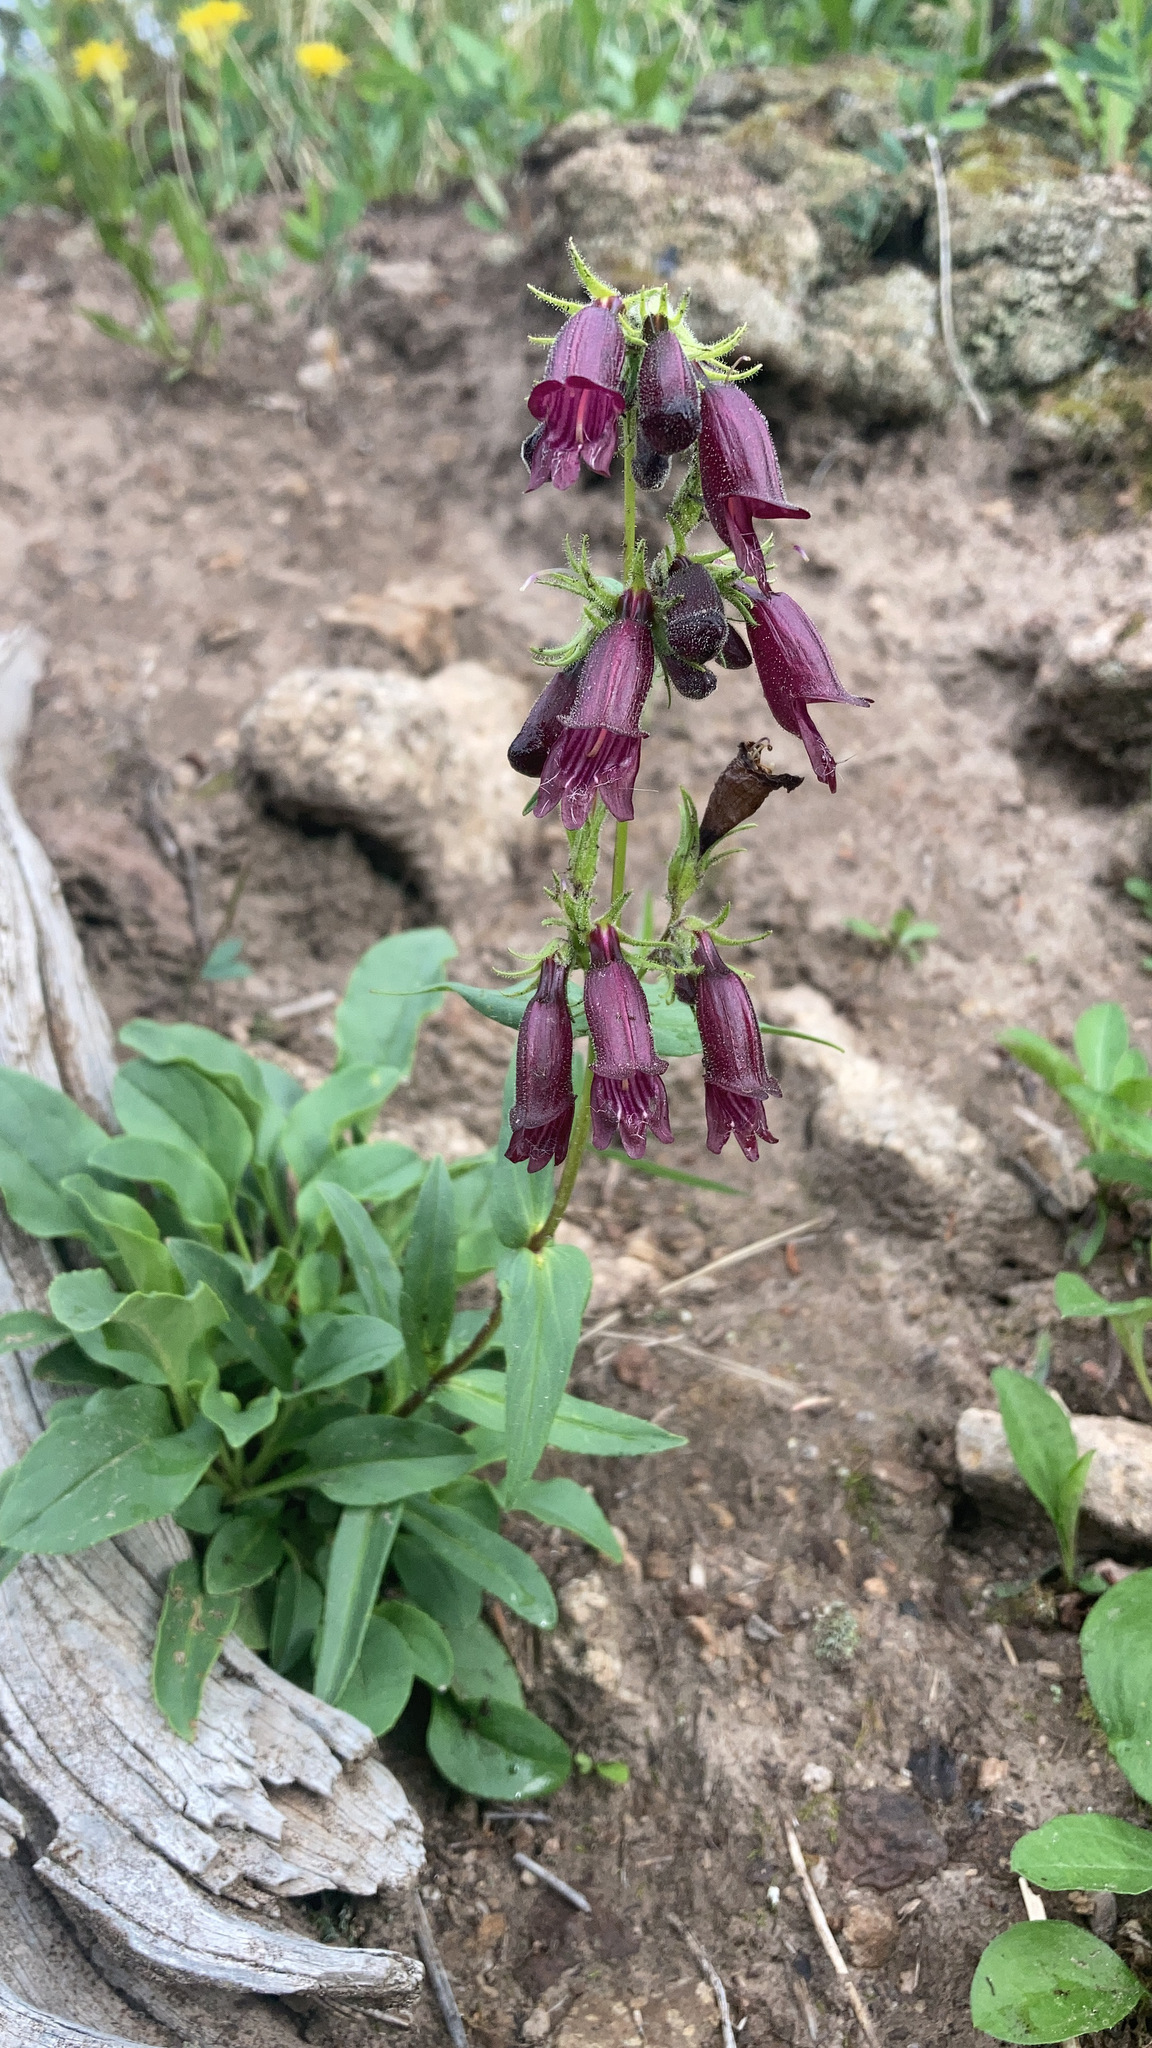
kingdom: Plantae
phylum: Tracheophyta
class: Magnoliopsida
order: Lamiales
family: Plantaginaceae
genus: Penstemon
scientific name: Penstemon whippleanus
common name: Whipple's penstemon
